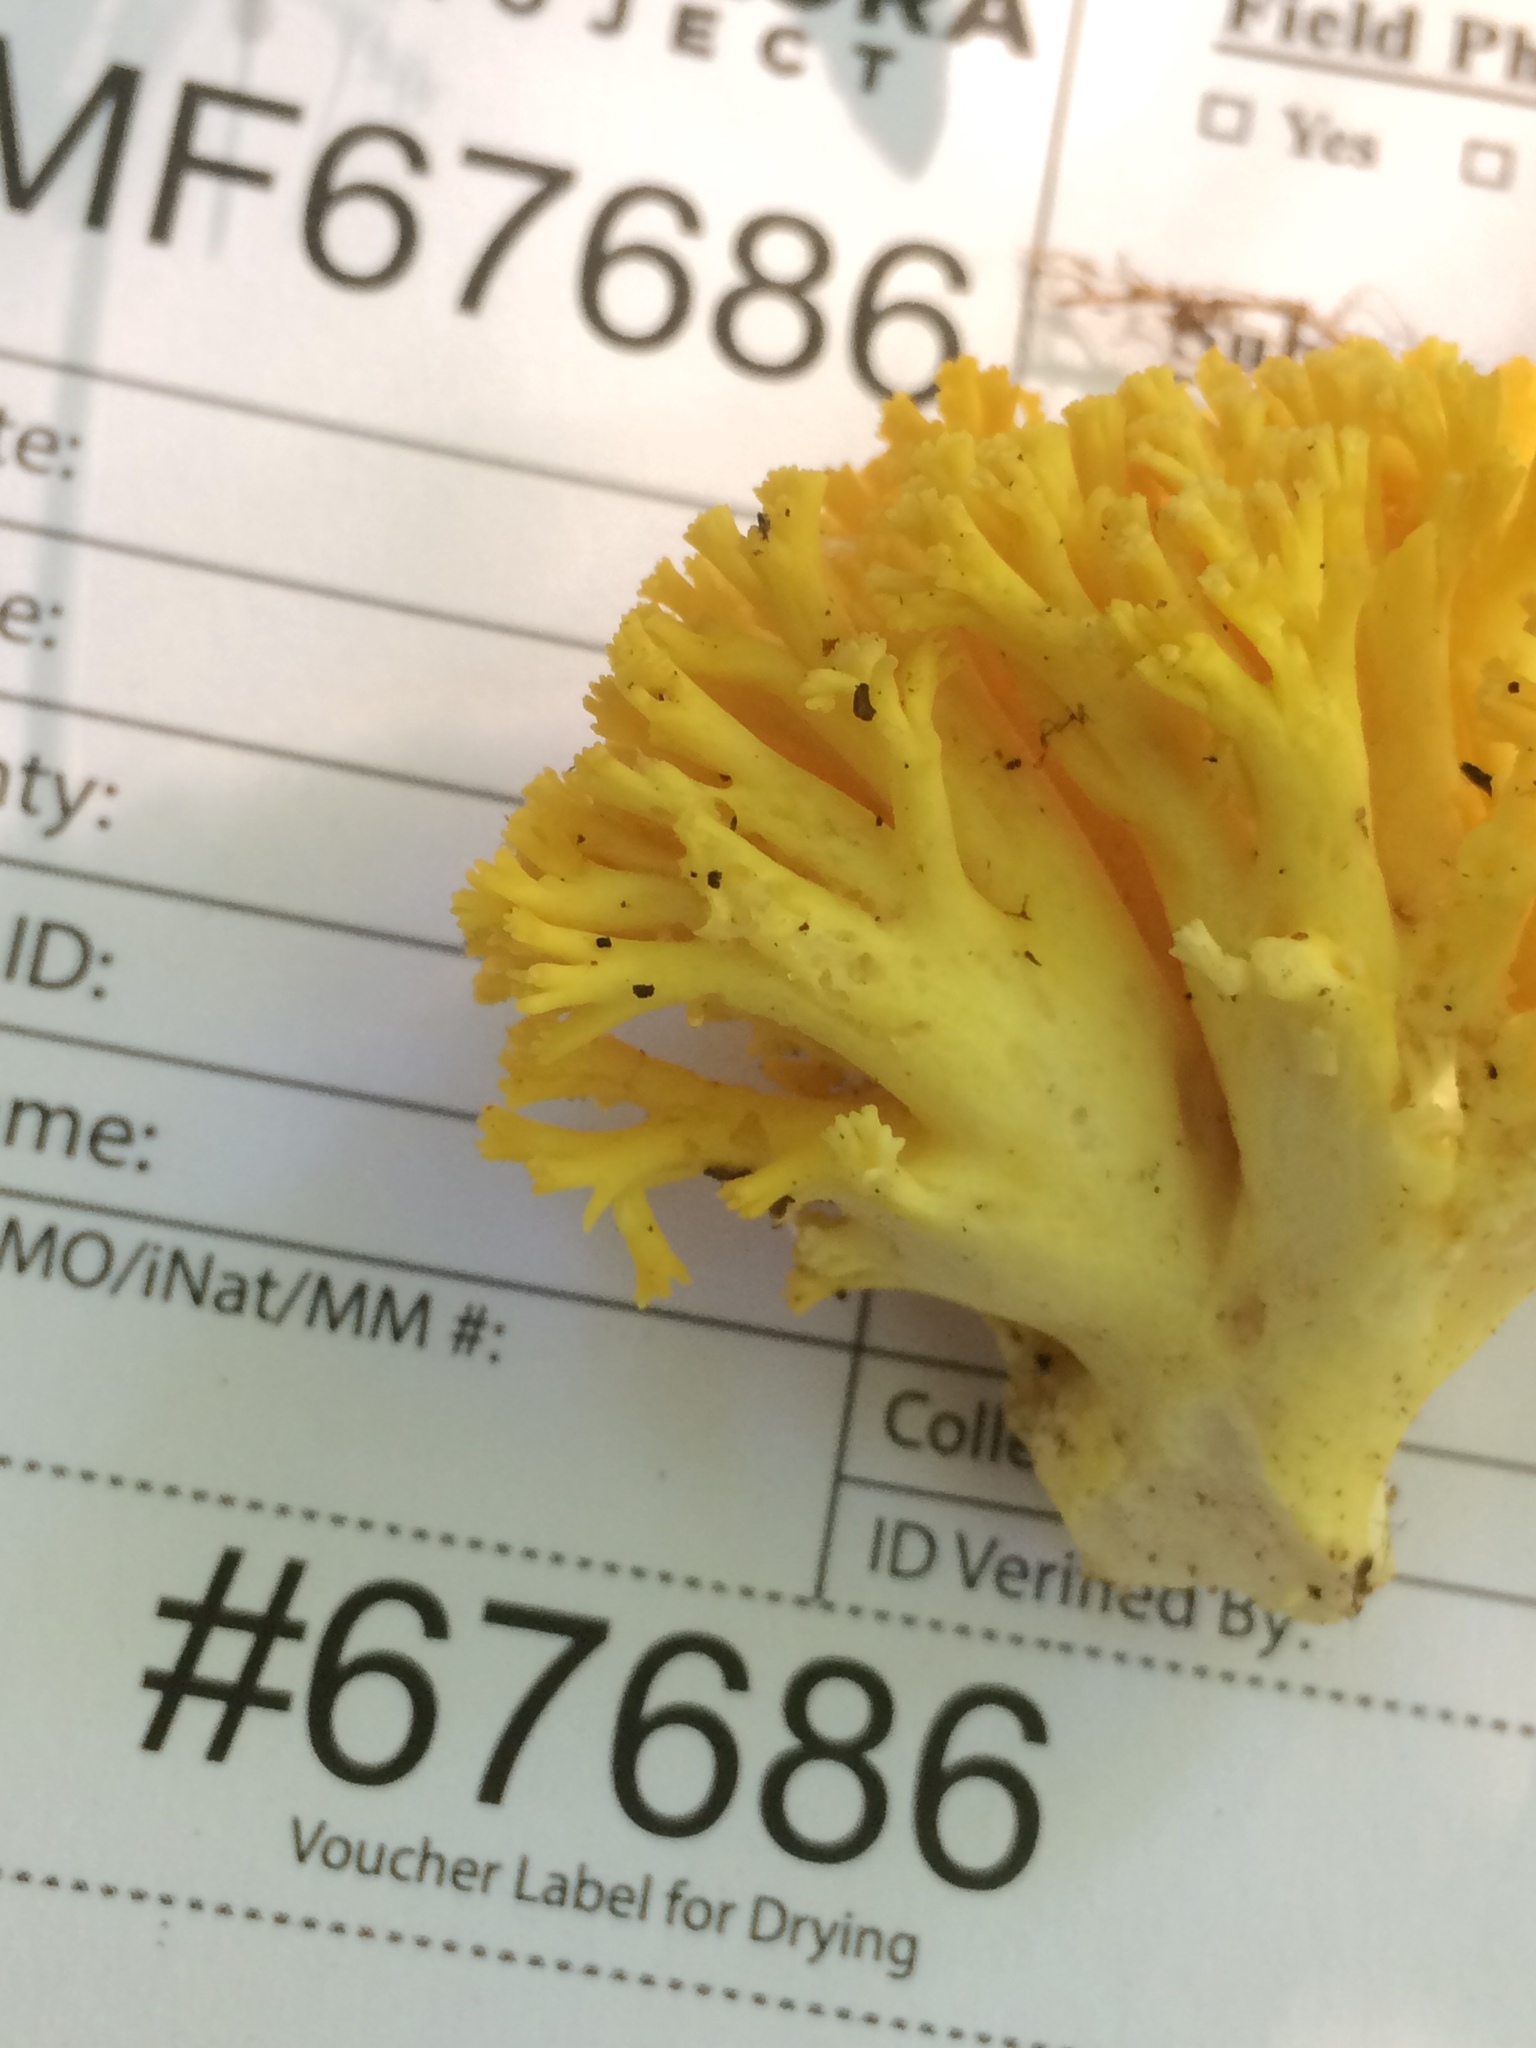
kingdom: Fungi
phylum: Basidiomycota
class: Agaricomycetes
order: Gomphales
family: Gomphaceae
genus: Ramaria
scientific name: Ramaria caulifloriformis
